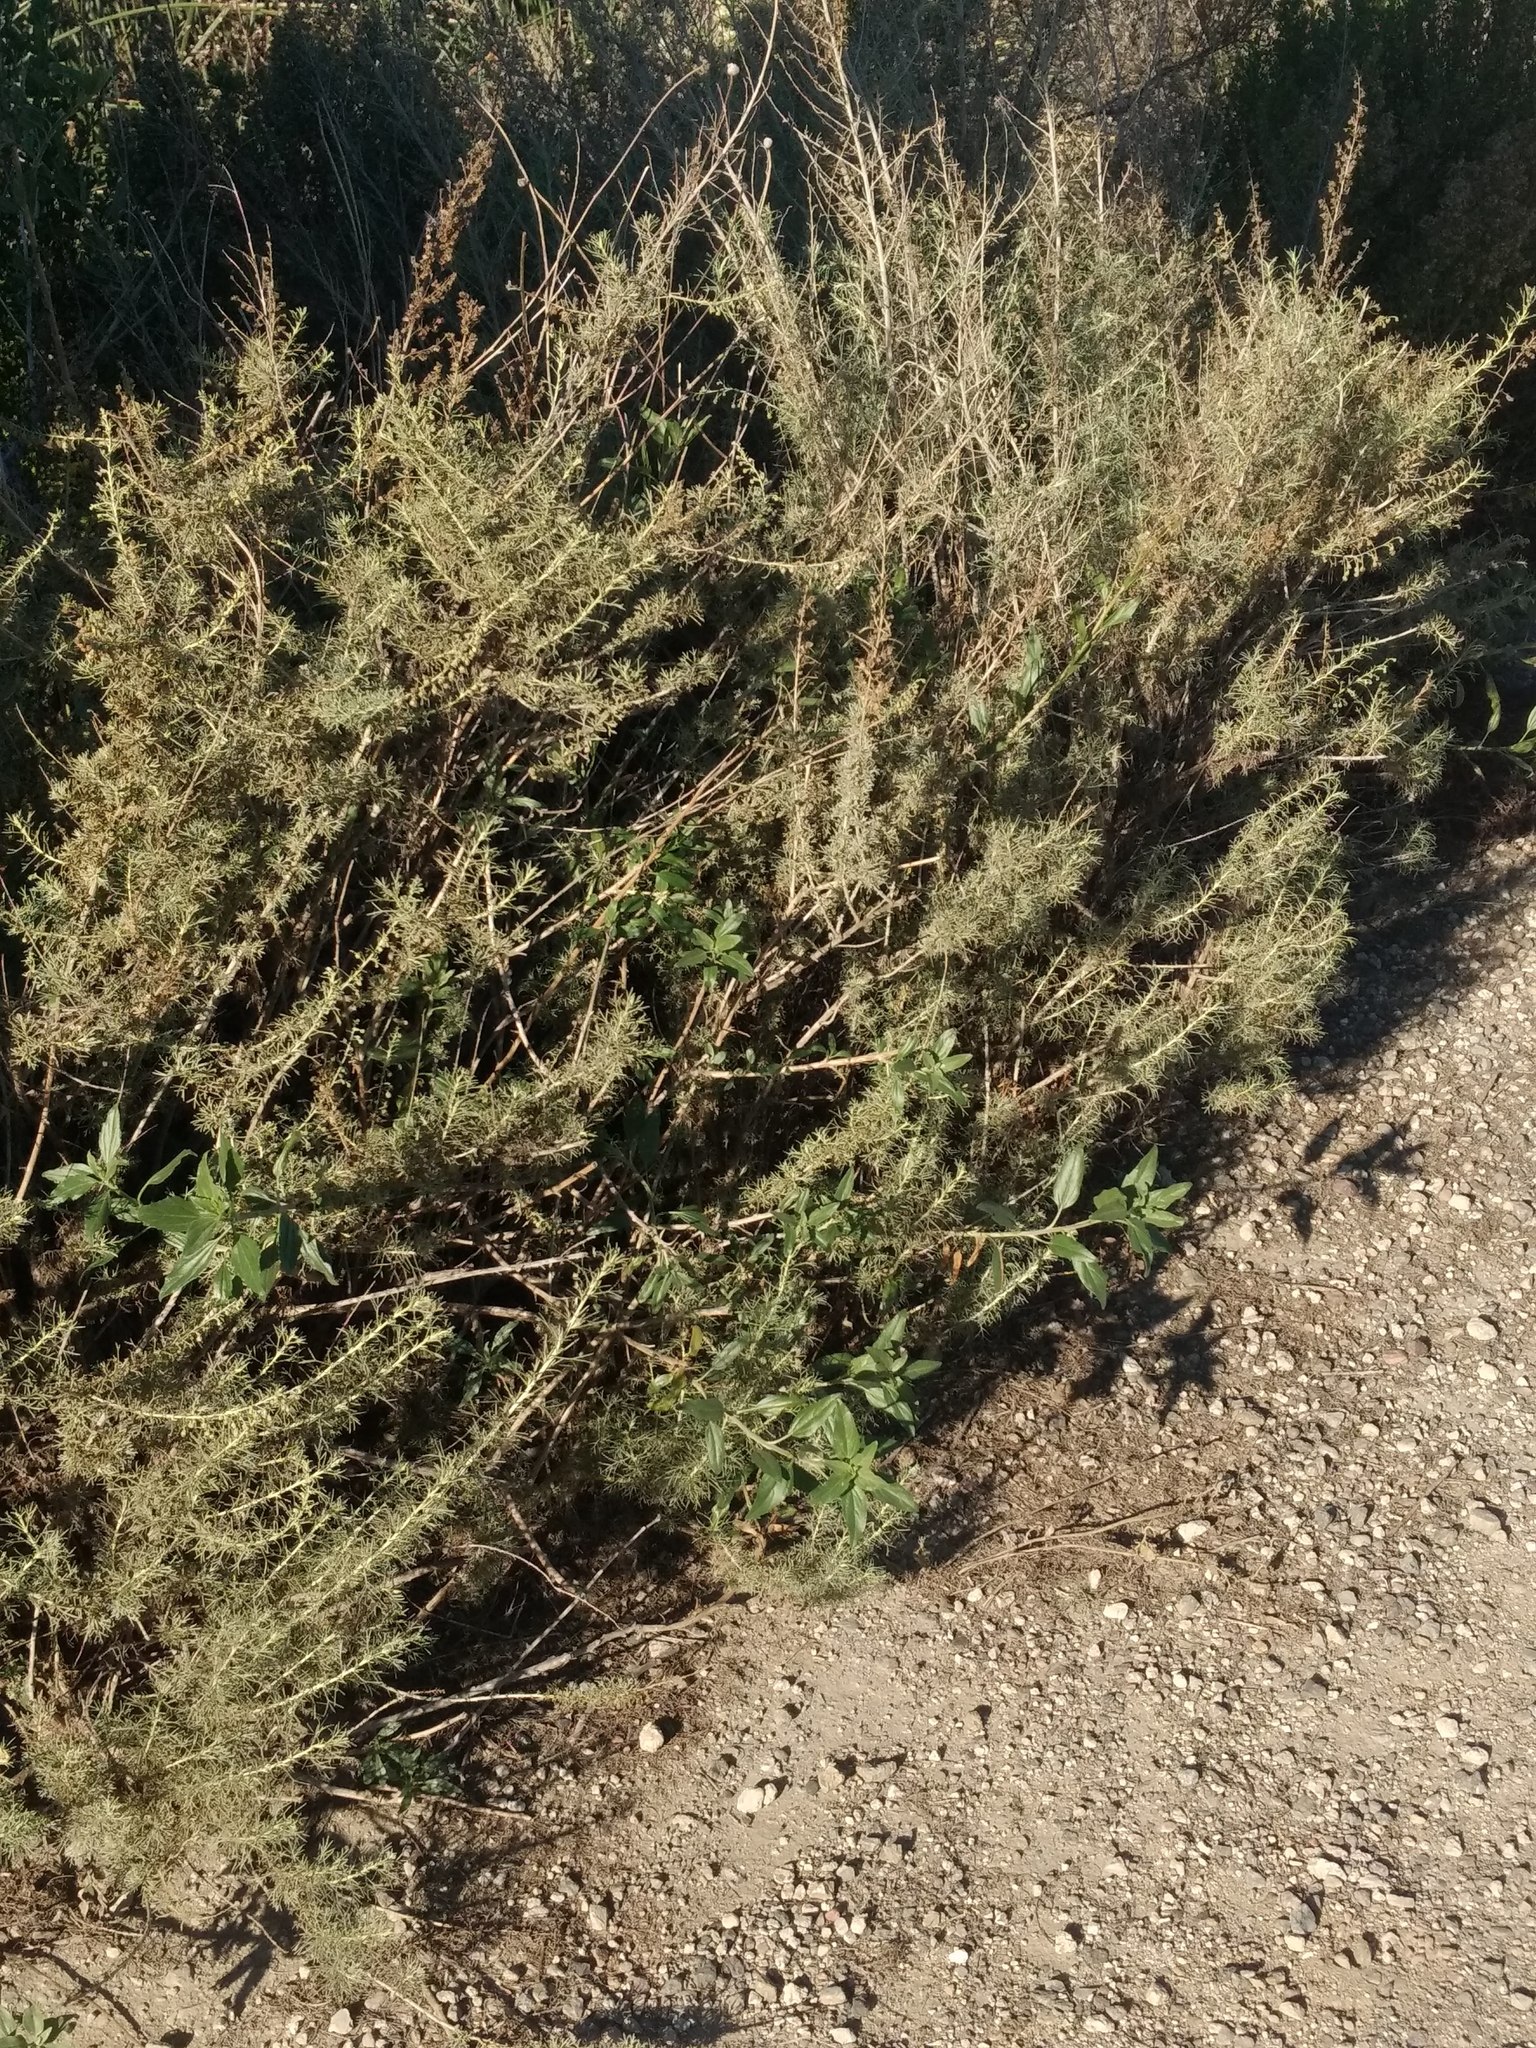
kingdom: Plantae
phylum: Tracheophyta
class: Magnoliopsida
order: Asterales
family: Asteraceae
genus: Artemisia
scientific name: Artemisia californica
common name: California sagebrush
